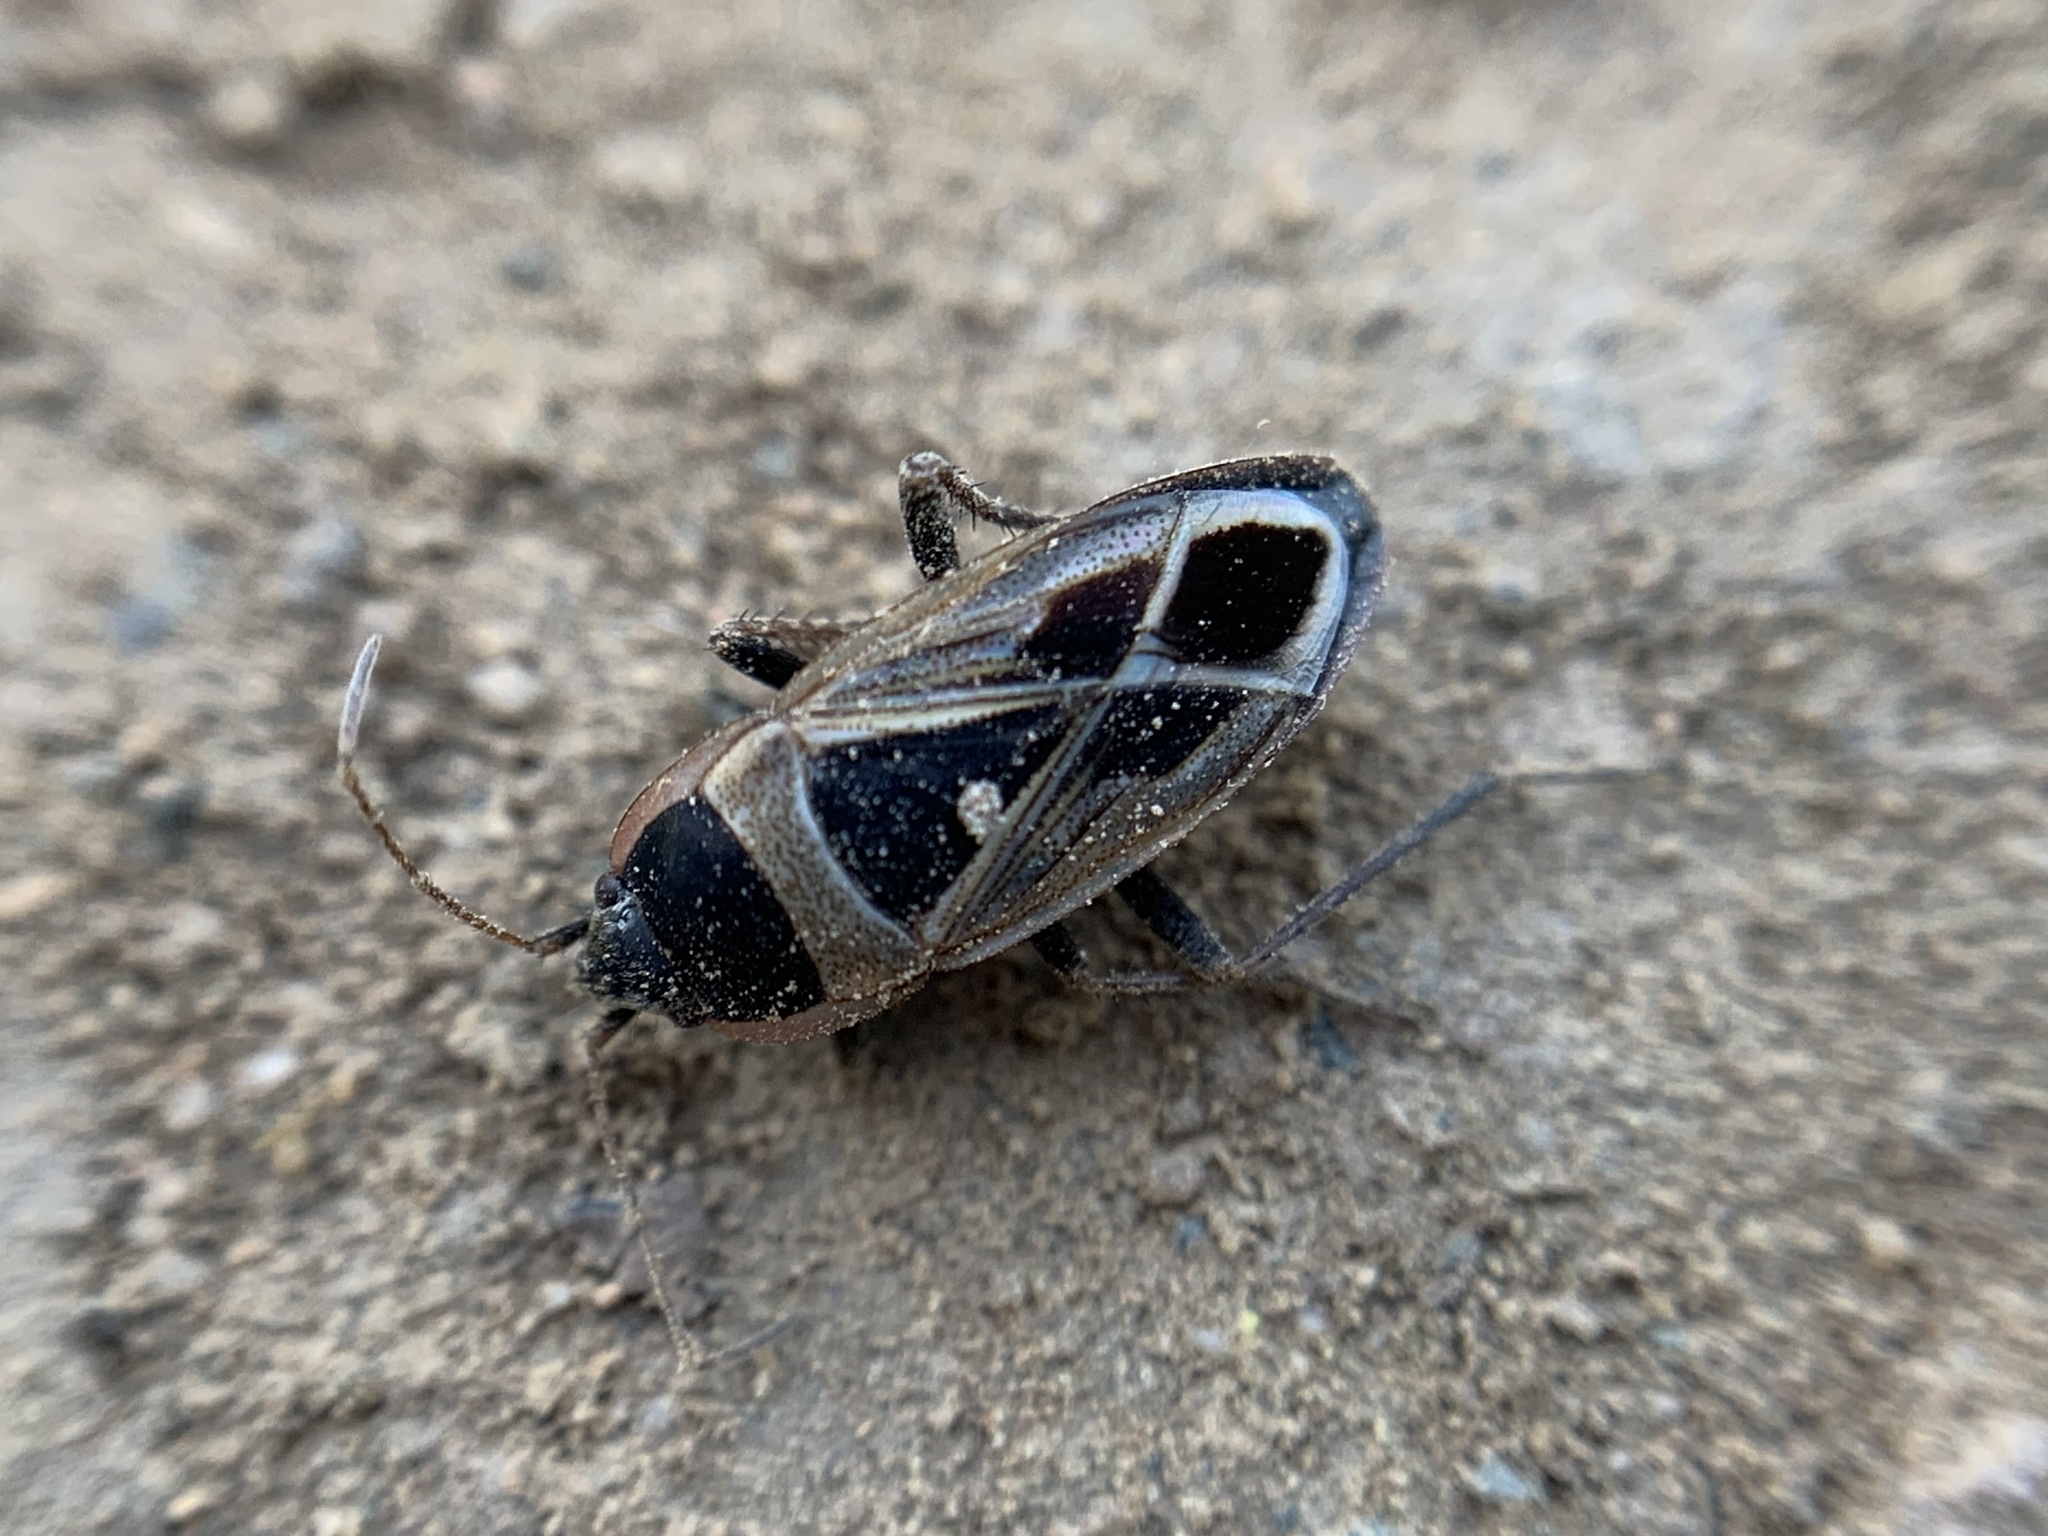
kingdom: Animalia
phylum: Arthropoda
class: Insecta
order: Hemiptera
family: Rhyparochromidae
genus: Xanthochilus
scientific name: Xanthochilus saturnius
